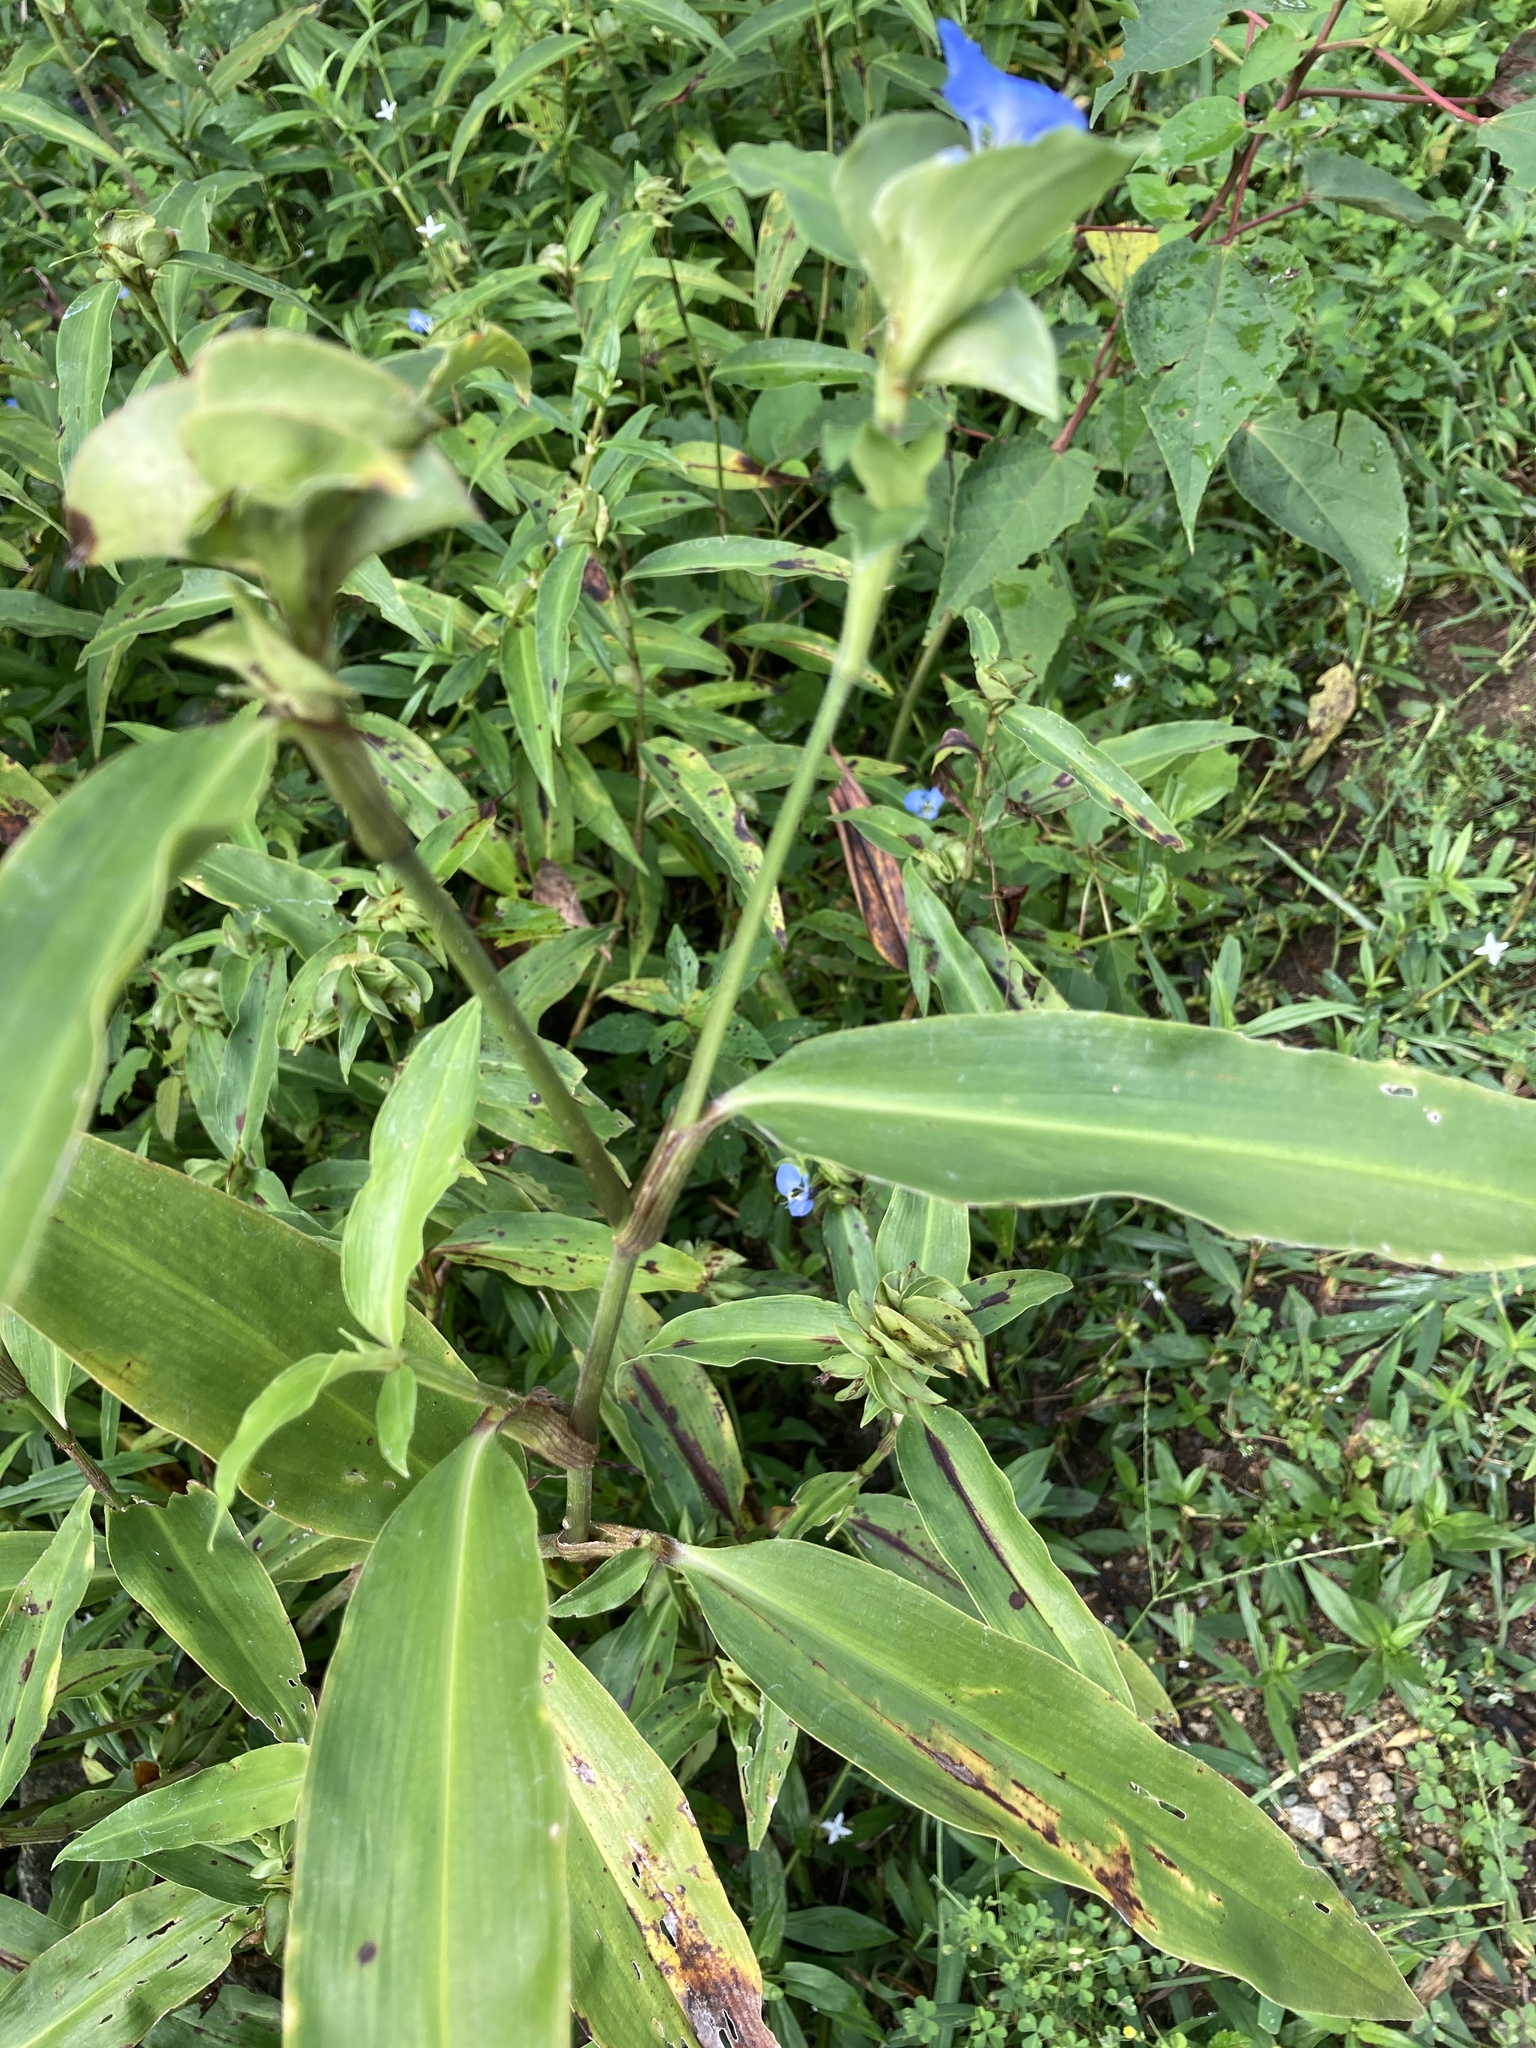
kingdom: Plantae
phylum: Tracheophyta
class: Liliopsida
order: Commelinales
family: Commelinaceae
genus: Commelina
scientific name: Commelina virginica
